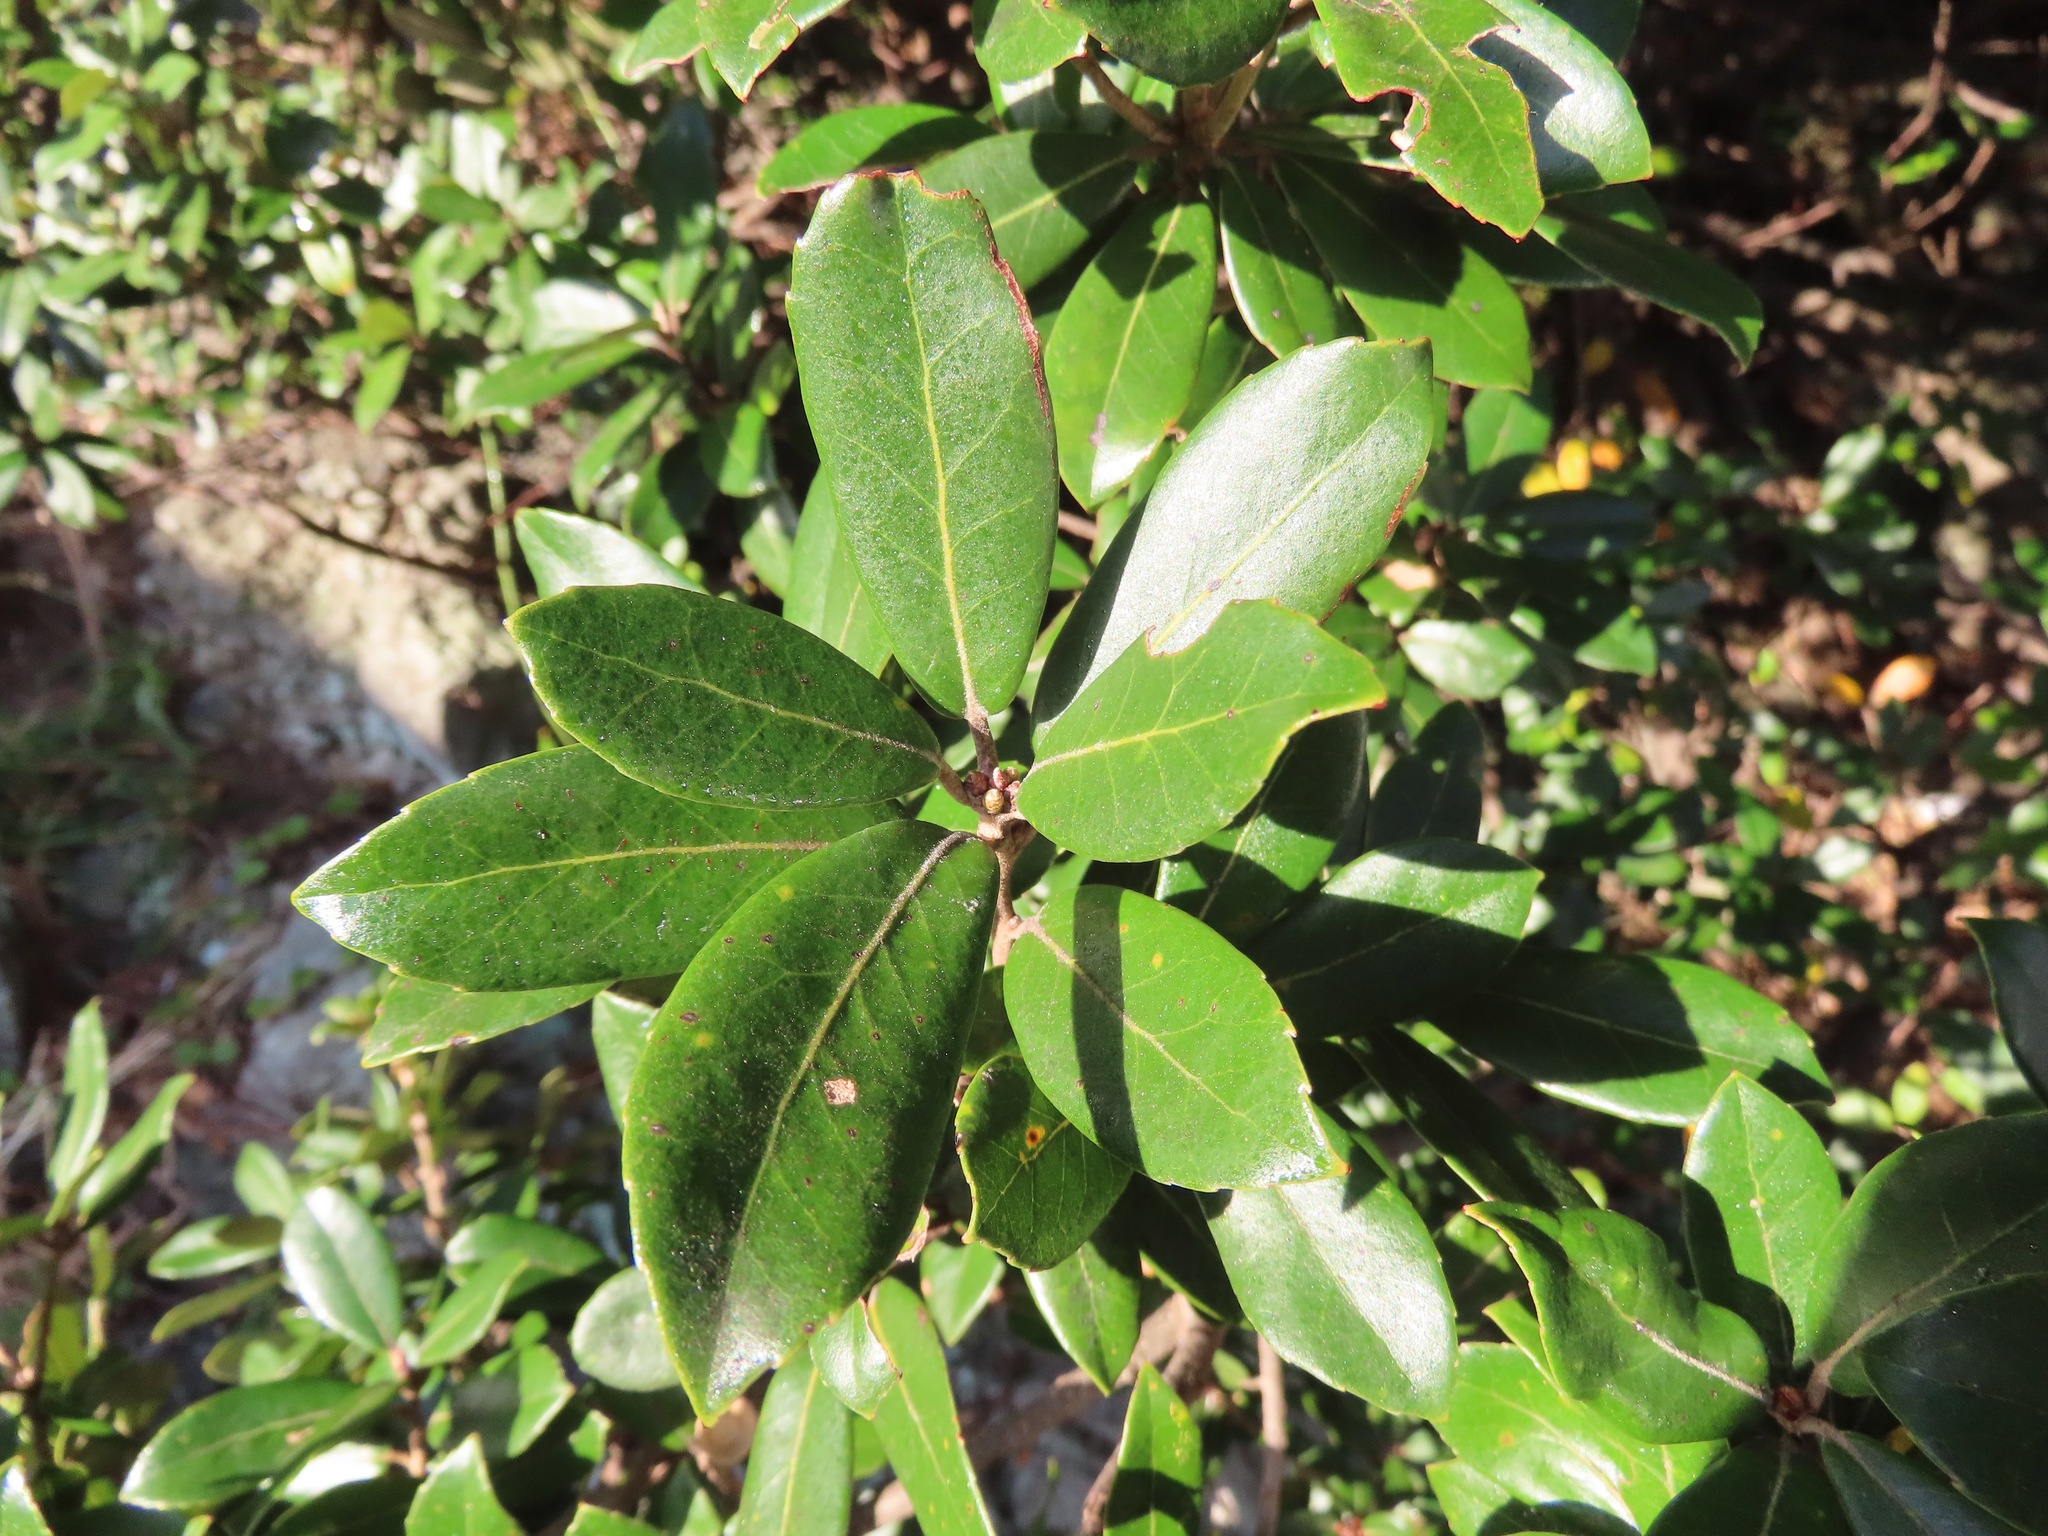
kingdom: Plantae
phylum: Tracheophyta
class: Magnoliopsida
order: Fagales
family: Fagaceae
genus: Quercus
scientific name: Quercus phillyreoides
